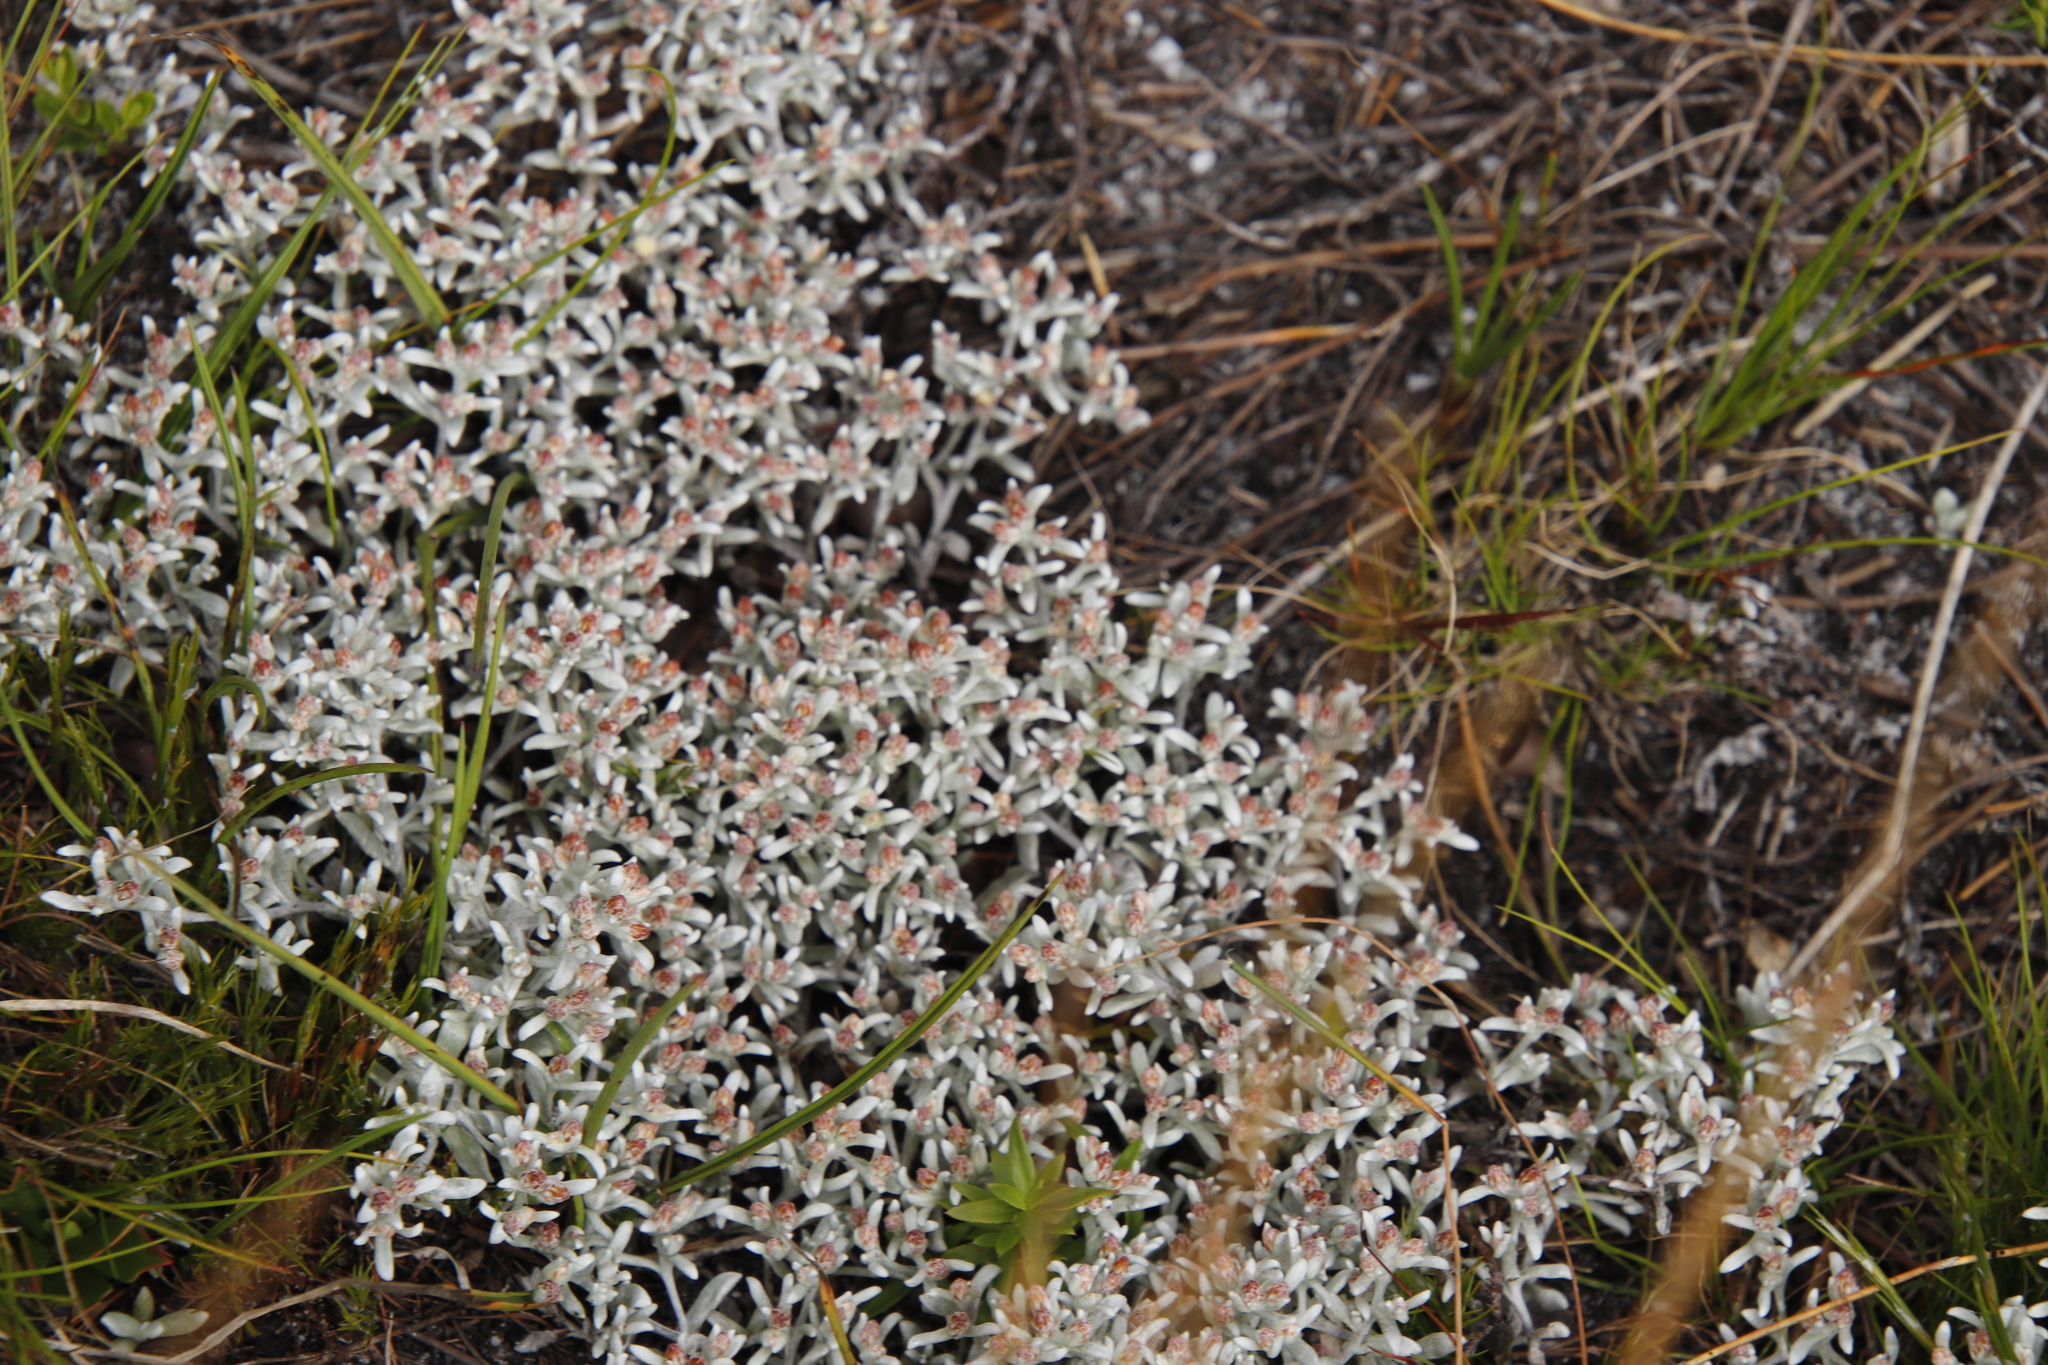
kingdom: Plantae
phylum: Tracheophyta
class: Magnoliopsida
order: Asterales
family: Asteraceae
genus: Helichrysum
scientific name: Helichrysum tinctum
